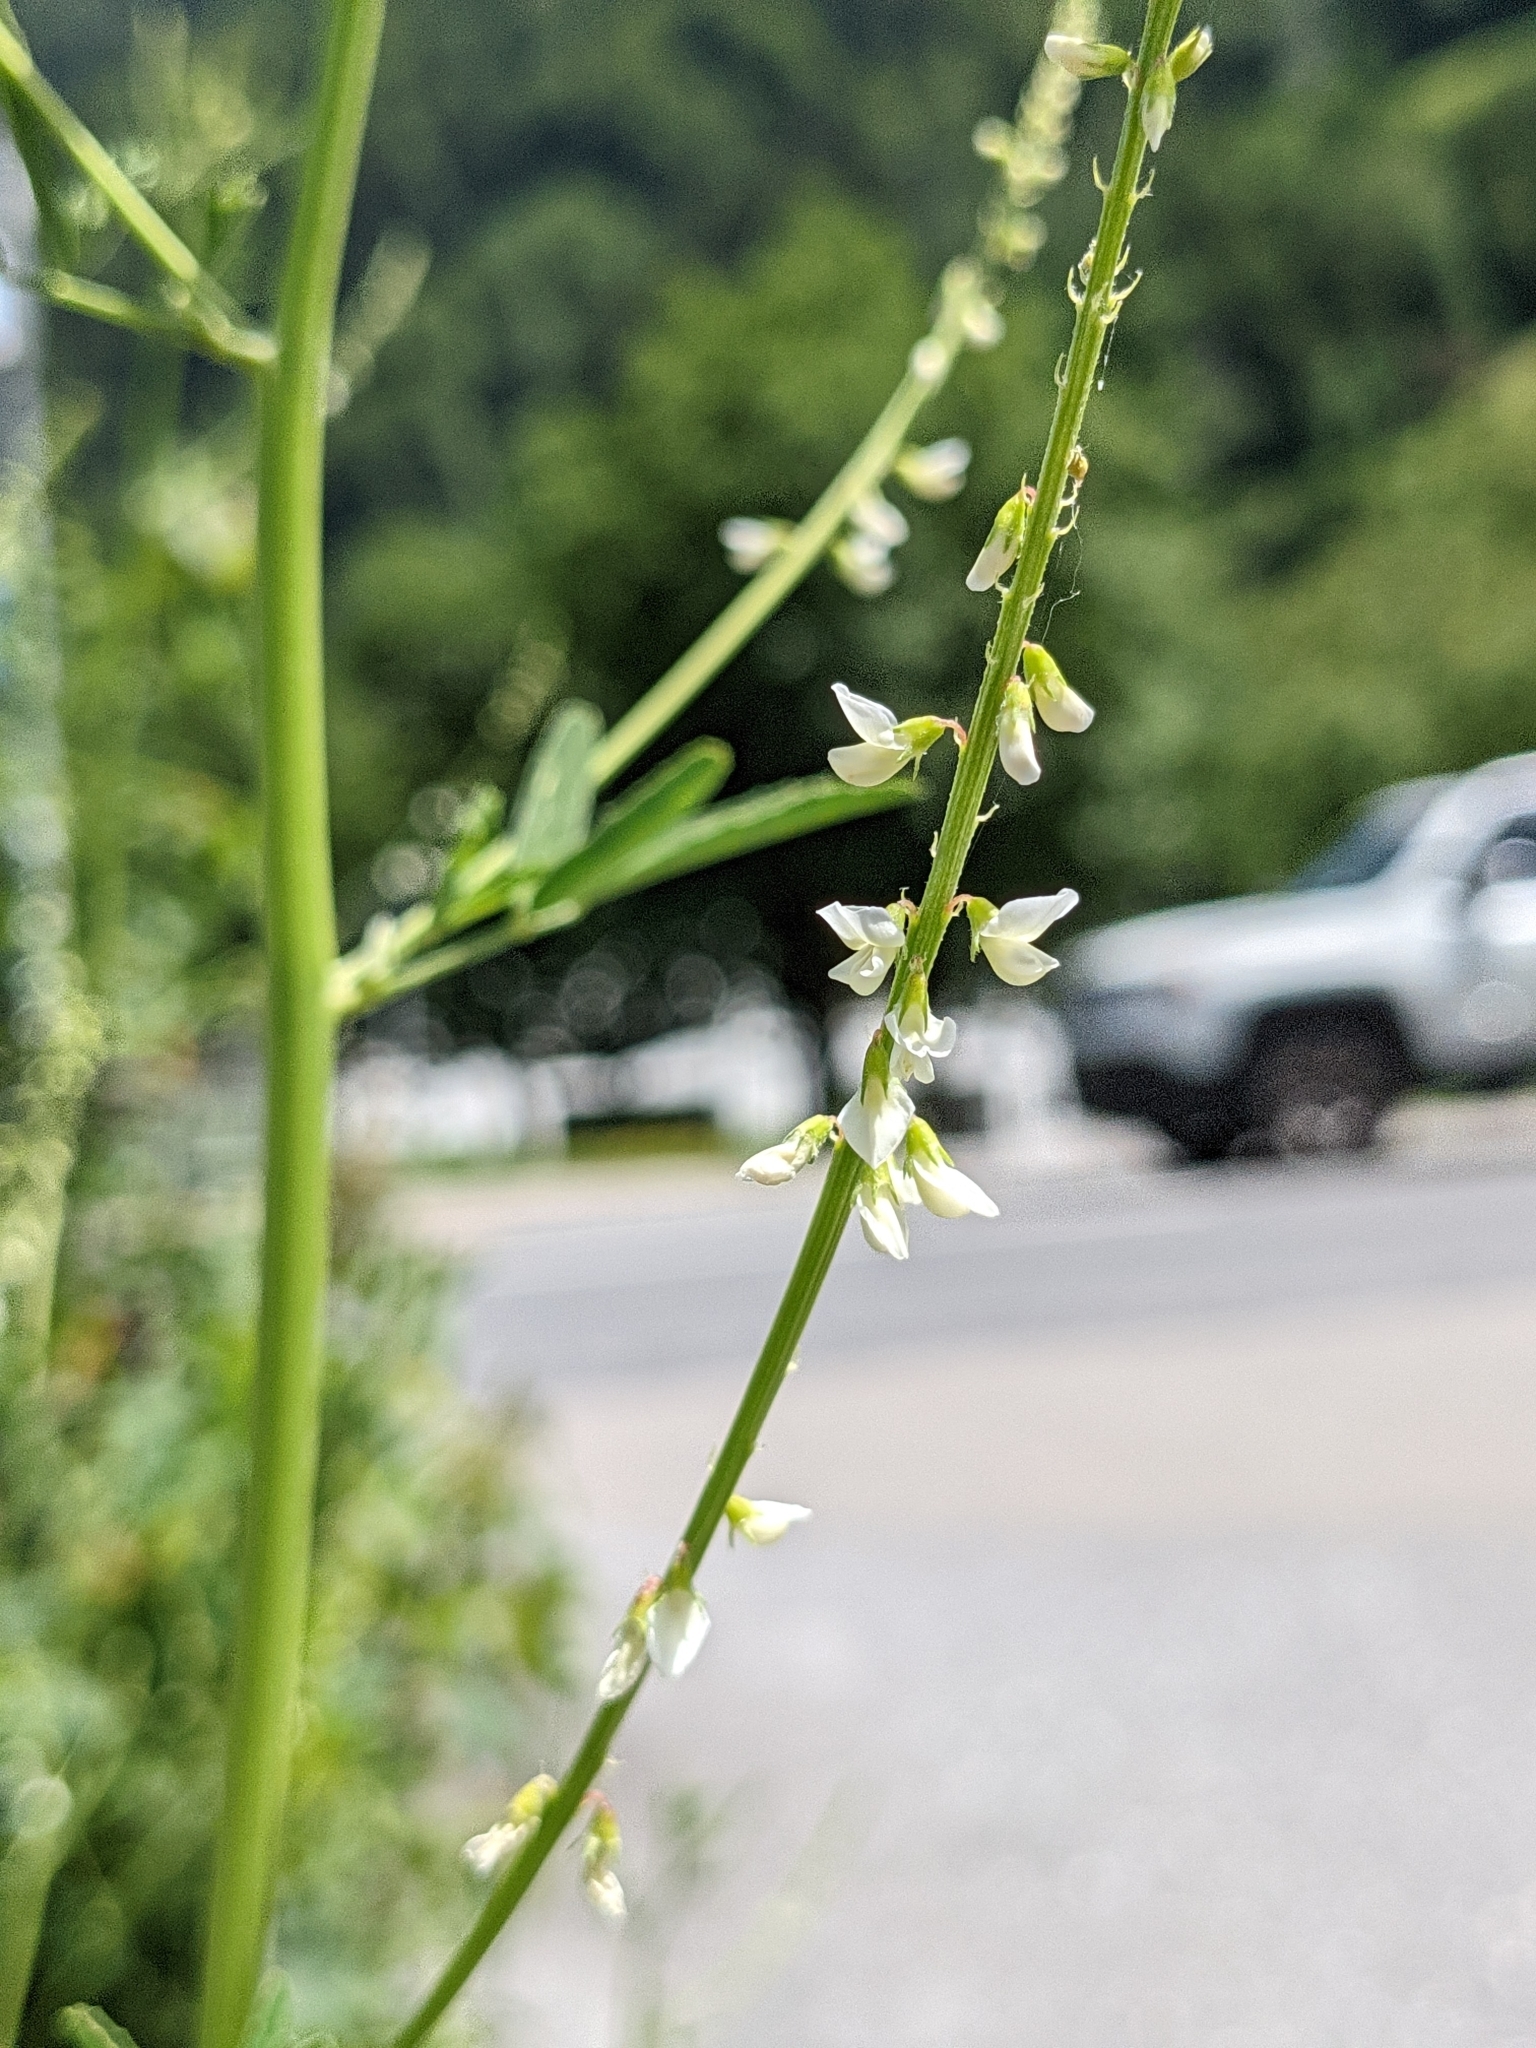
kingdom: Plantae
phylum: Tracheophyta
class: Magnoliopsida
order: Fabales
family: Fabaceae
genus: Melilotus
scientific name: Melilotus albus
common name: White melilot
